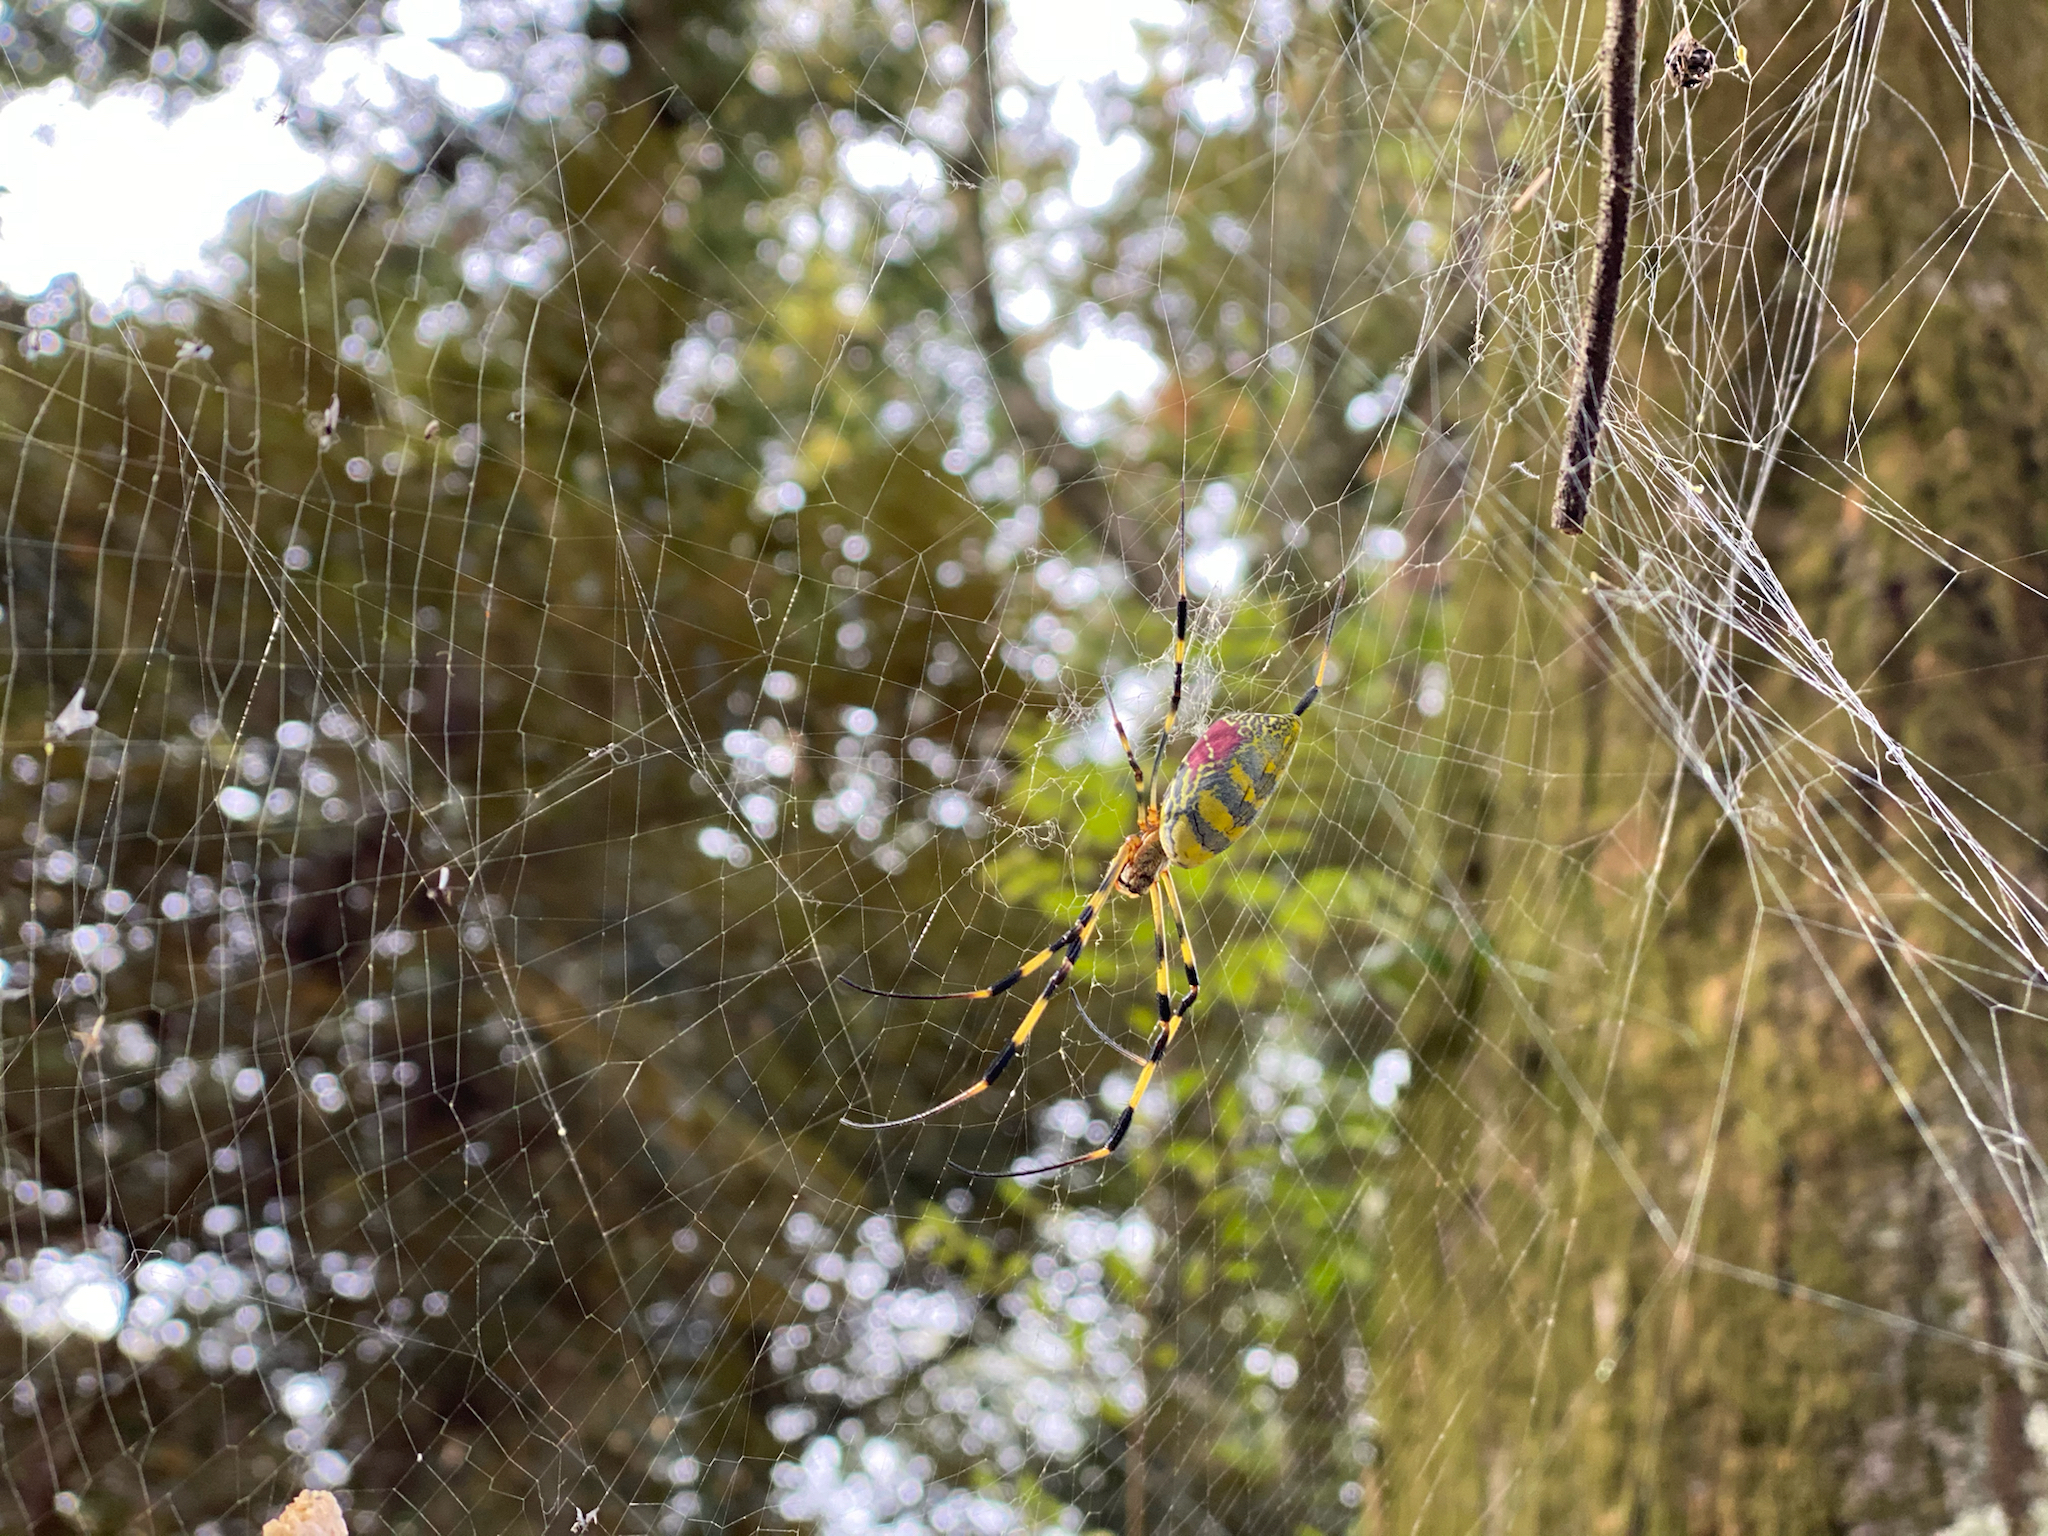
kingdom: Animalia
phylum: Arthropoda
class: Arachnida
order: Araneae
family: Araneidae
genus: Trichonephila
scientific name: Trichonephila clavata
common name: Jorō spider
